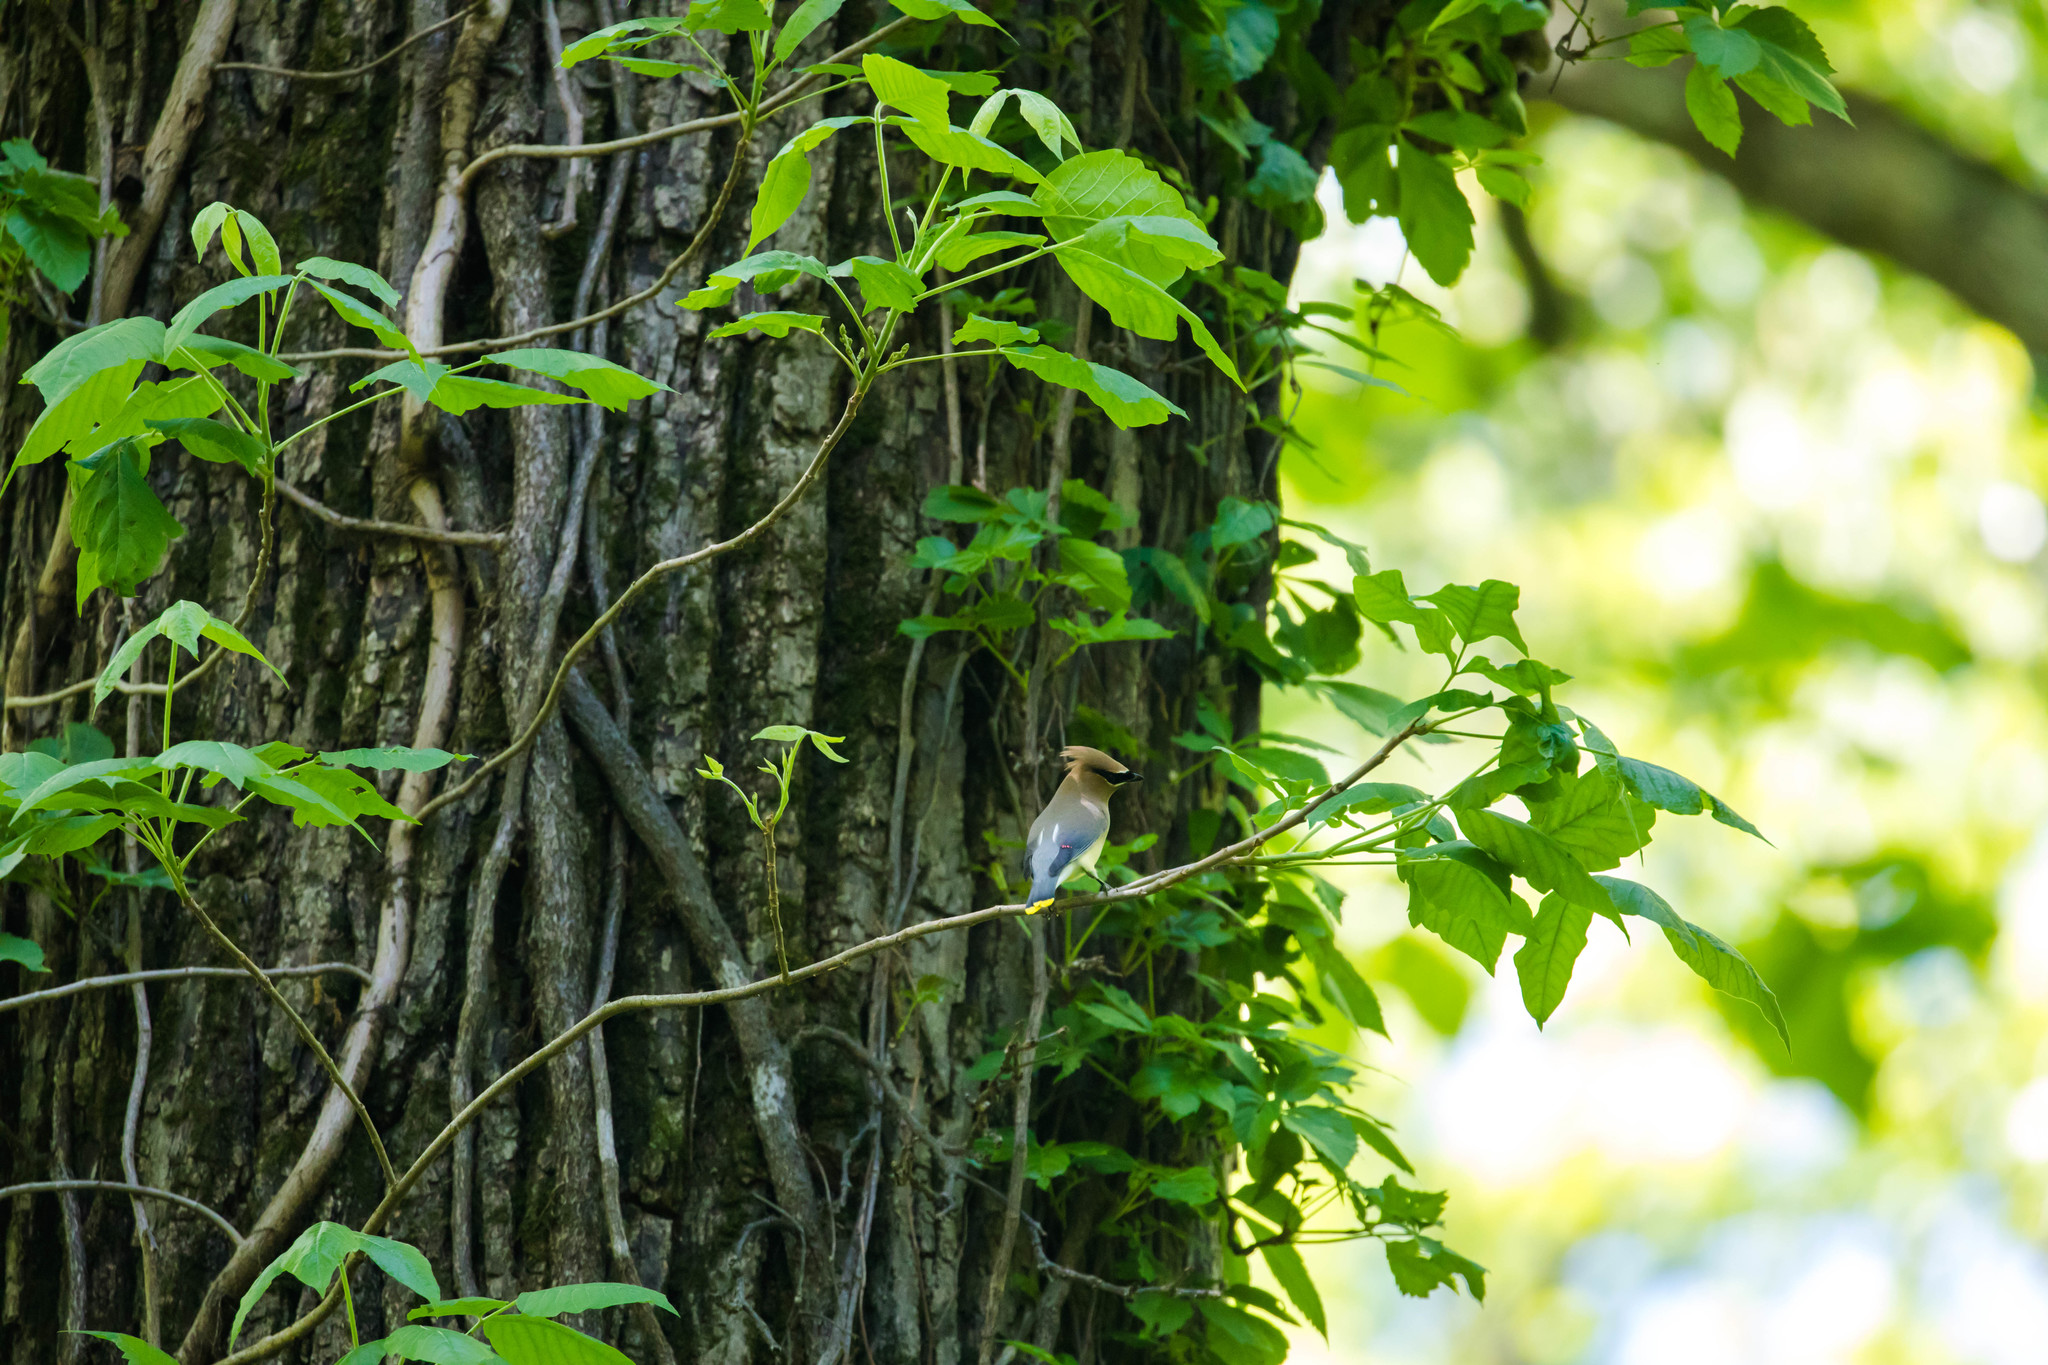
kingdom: Animalia
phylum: Chordata
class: Aves
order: Passeriformes
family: Bombycillidae
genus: Bombycilla
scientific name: Bombycilla cedrorum
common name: Cedar waxwing
